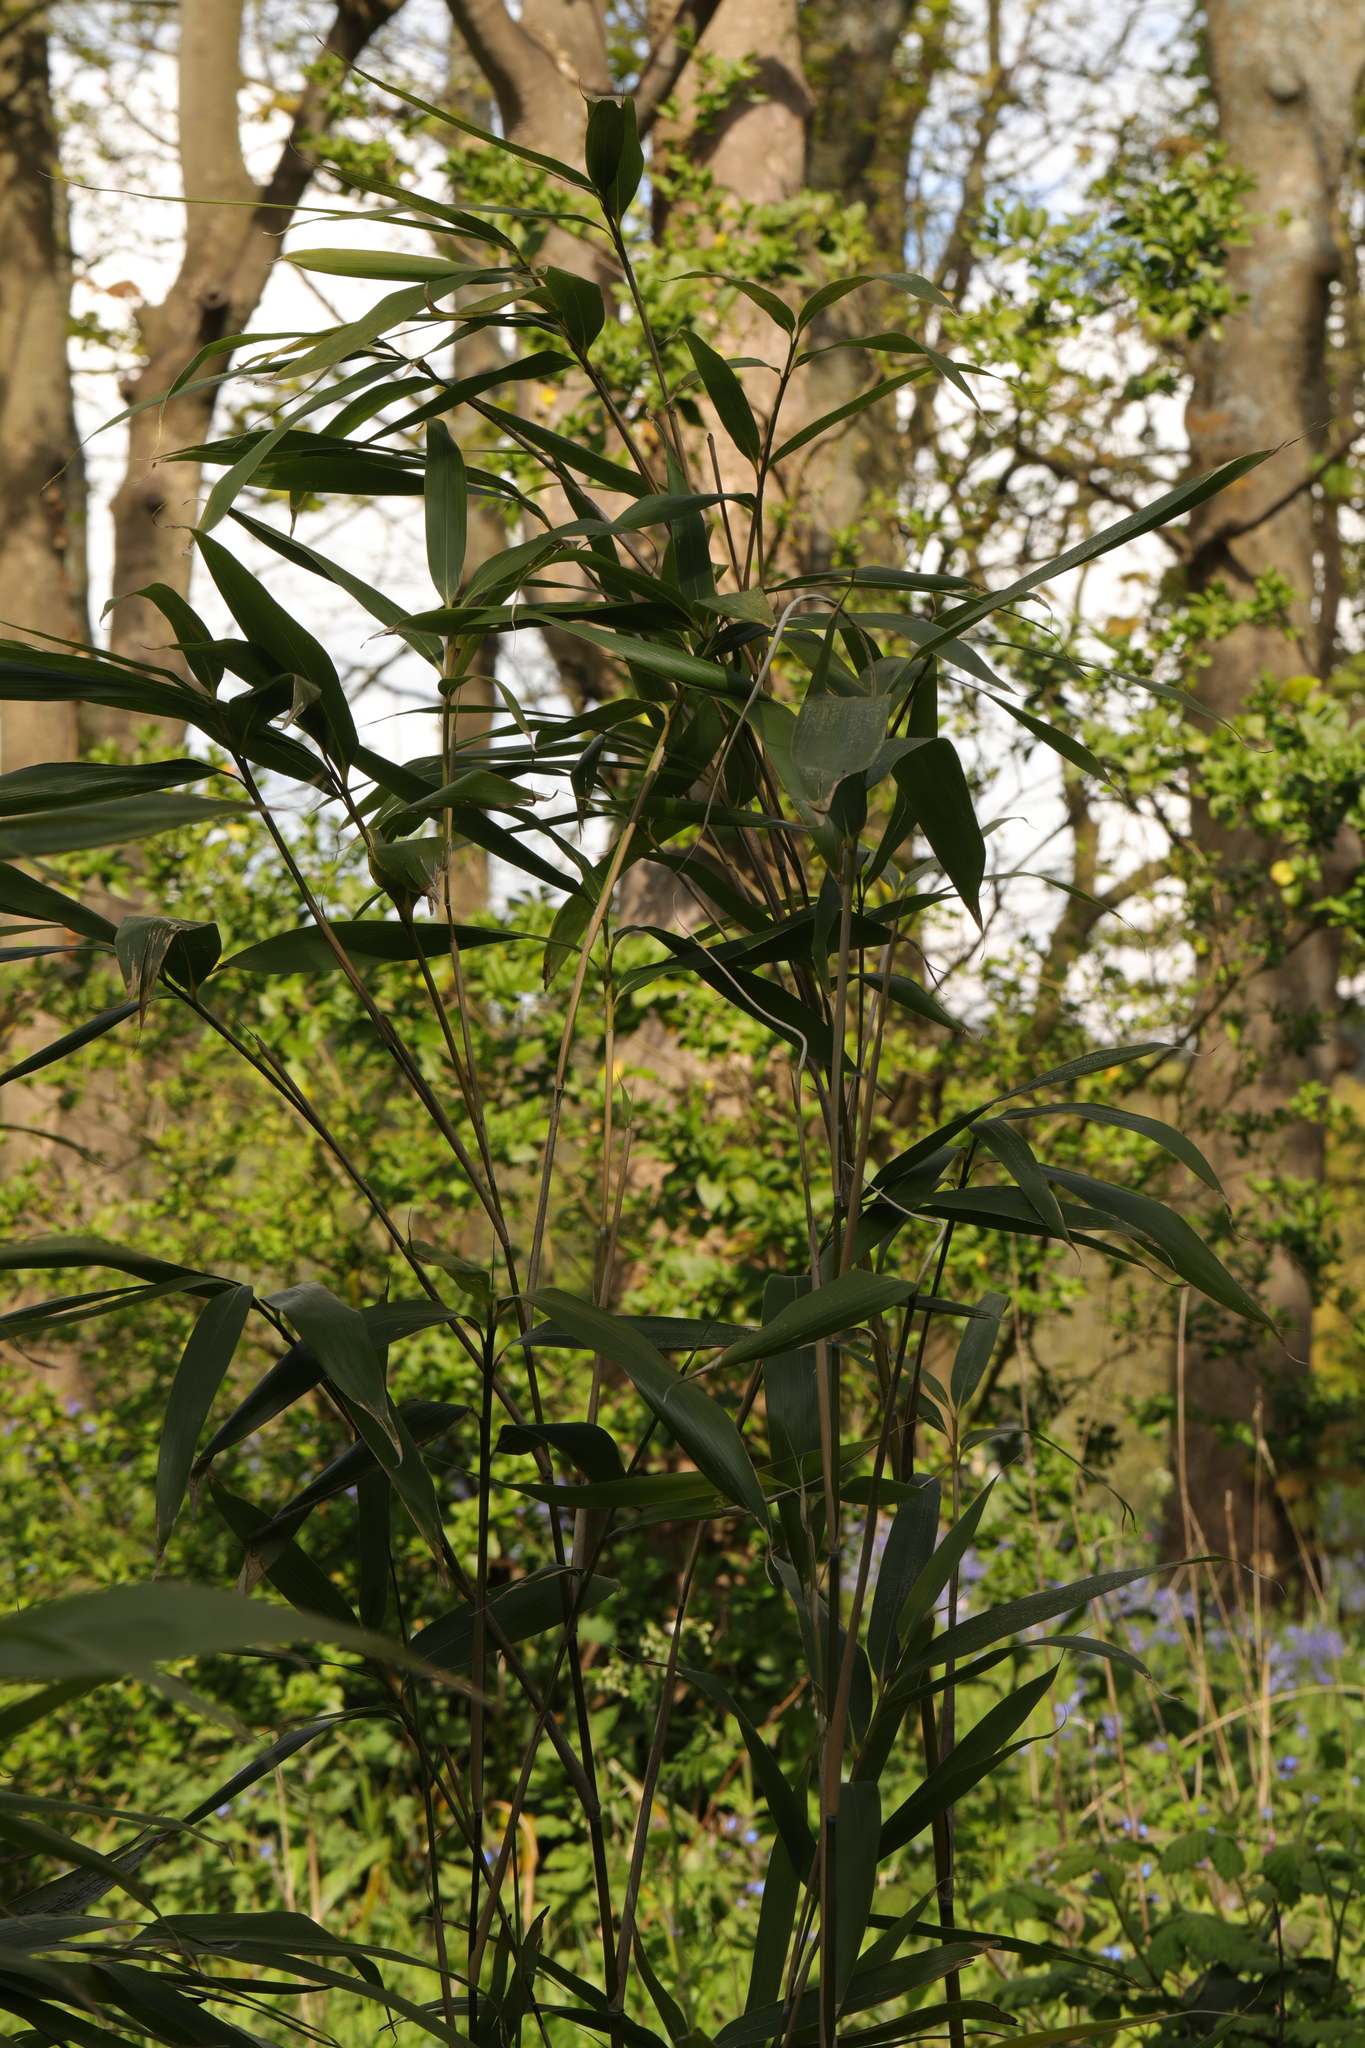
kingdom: Plantae
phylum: Tracheophyta
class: Liliopsida
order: Poales
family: Poaceae
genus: Pseudosasa
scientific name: Pseudosasa japonica
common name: Arrow bamboo
